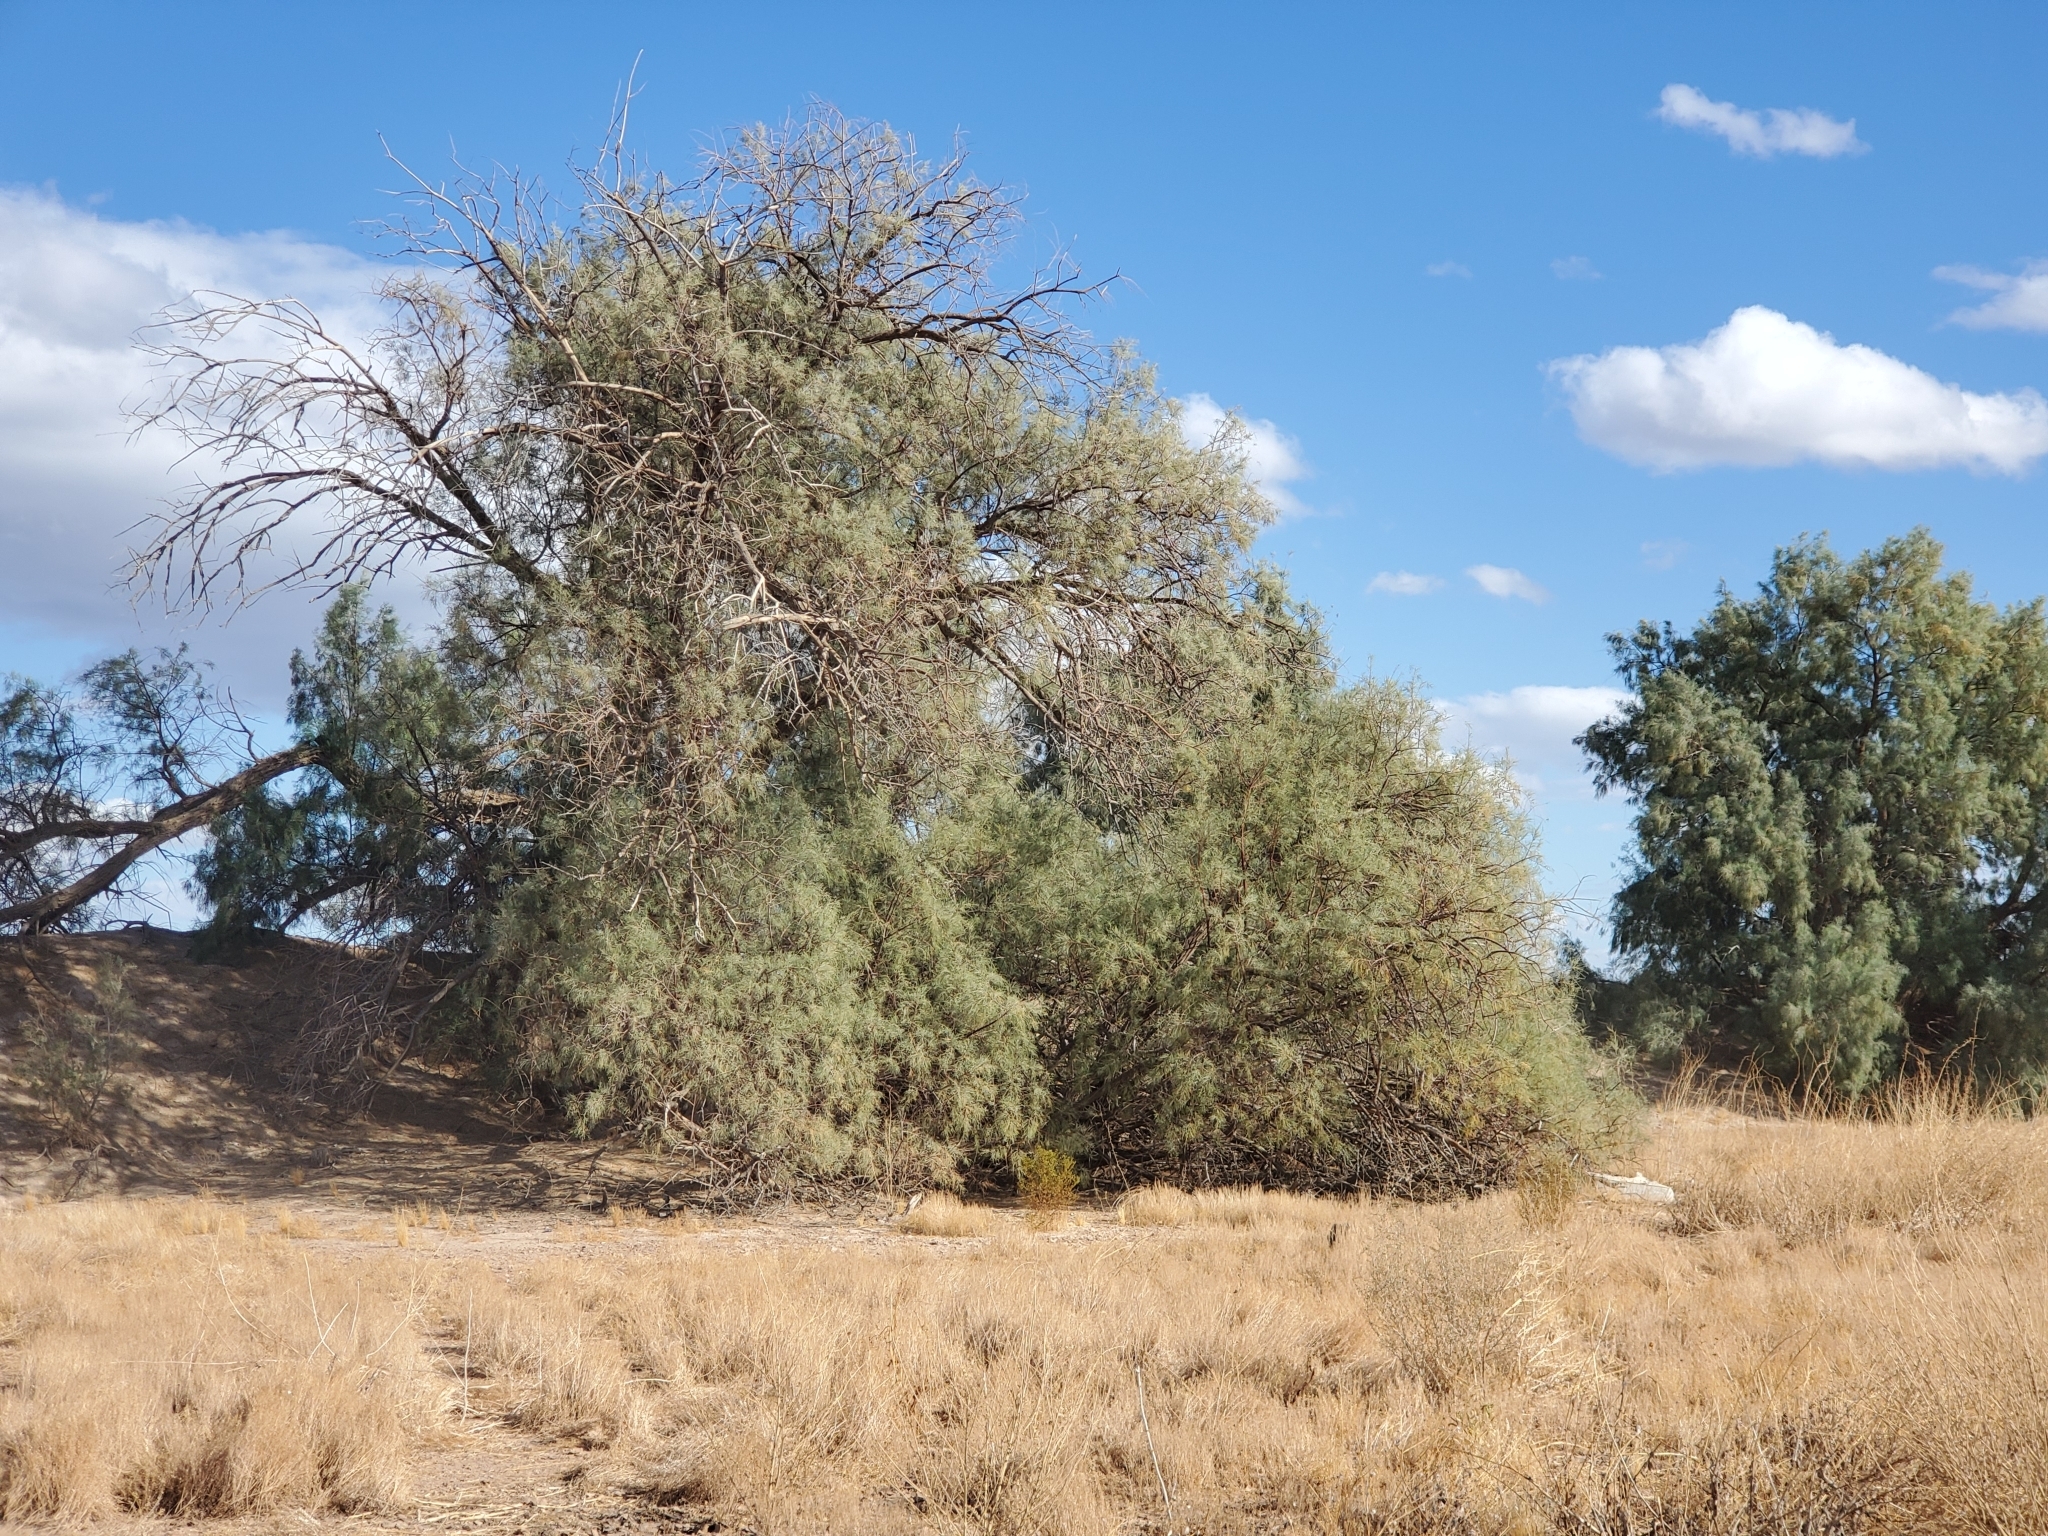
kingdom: Plantae
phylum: Tracheophyta
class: Magnoliopsida
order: Caryophyllales
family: Tamaricaceae
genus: Tamarix
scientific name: Tamarix aphylla
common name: Athel tamarisk
